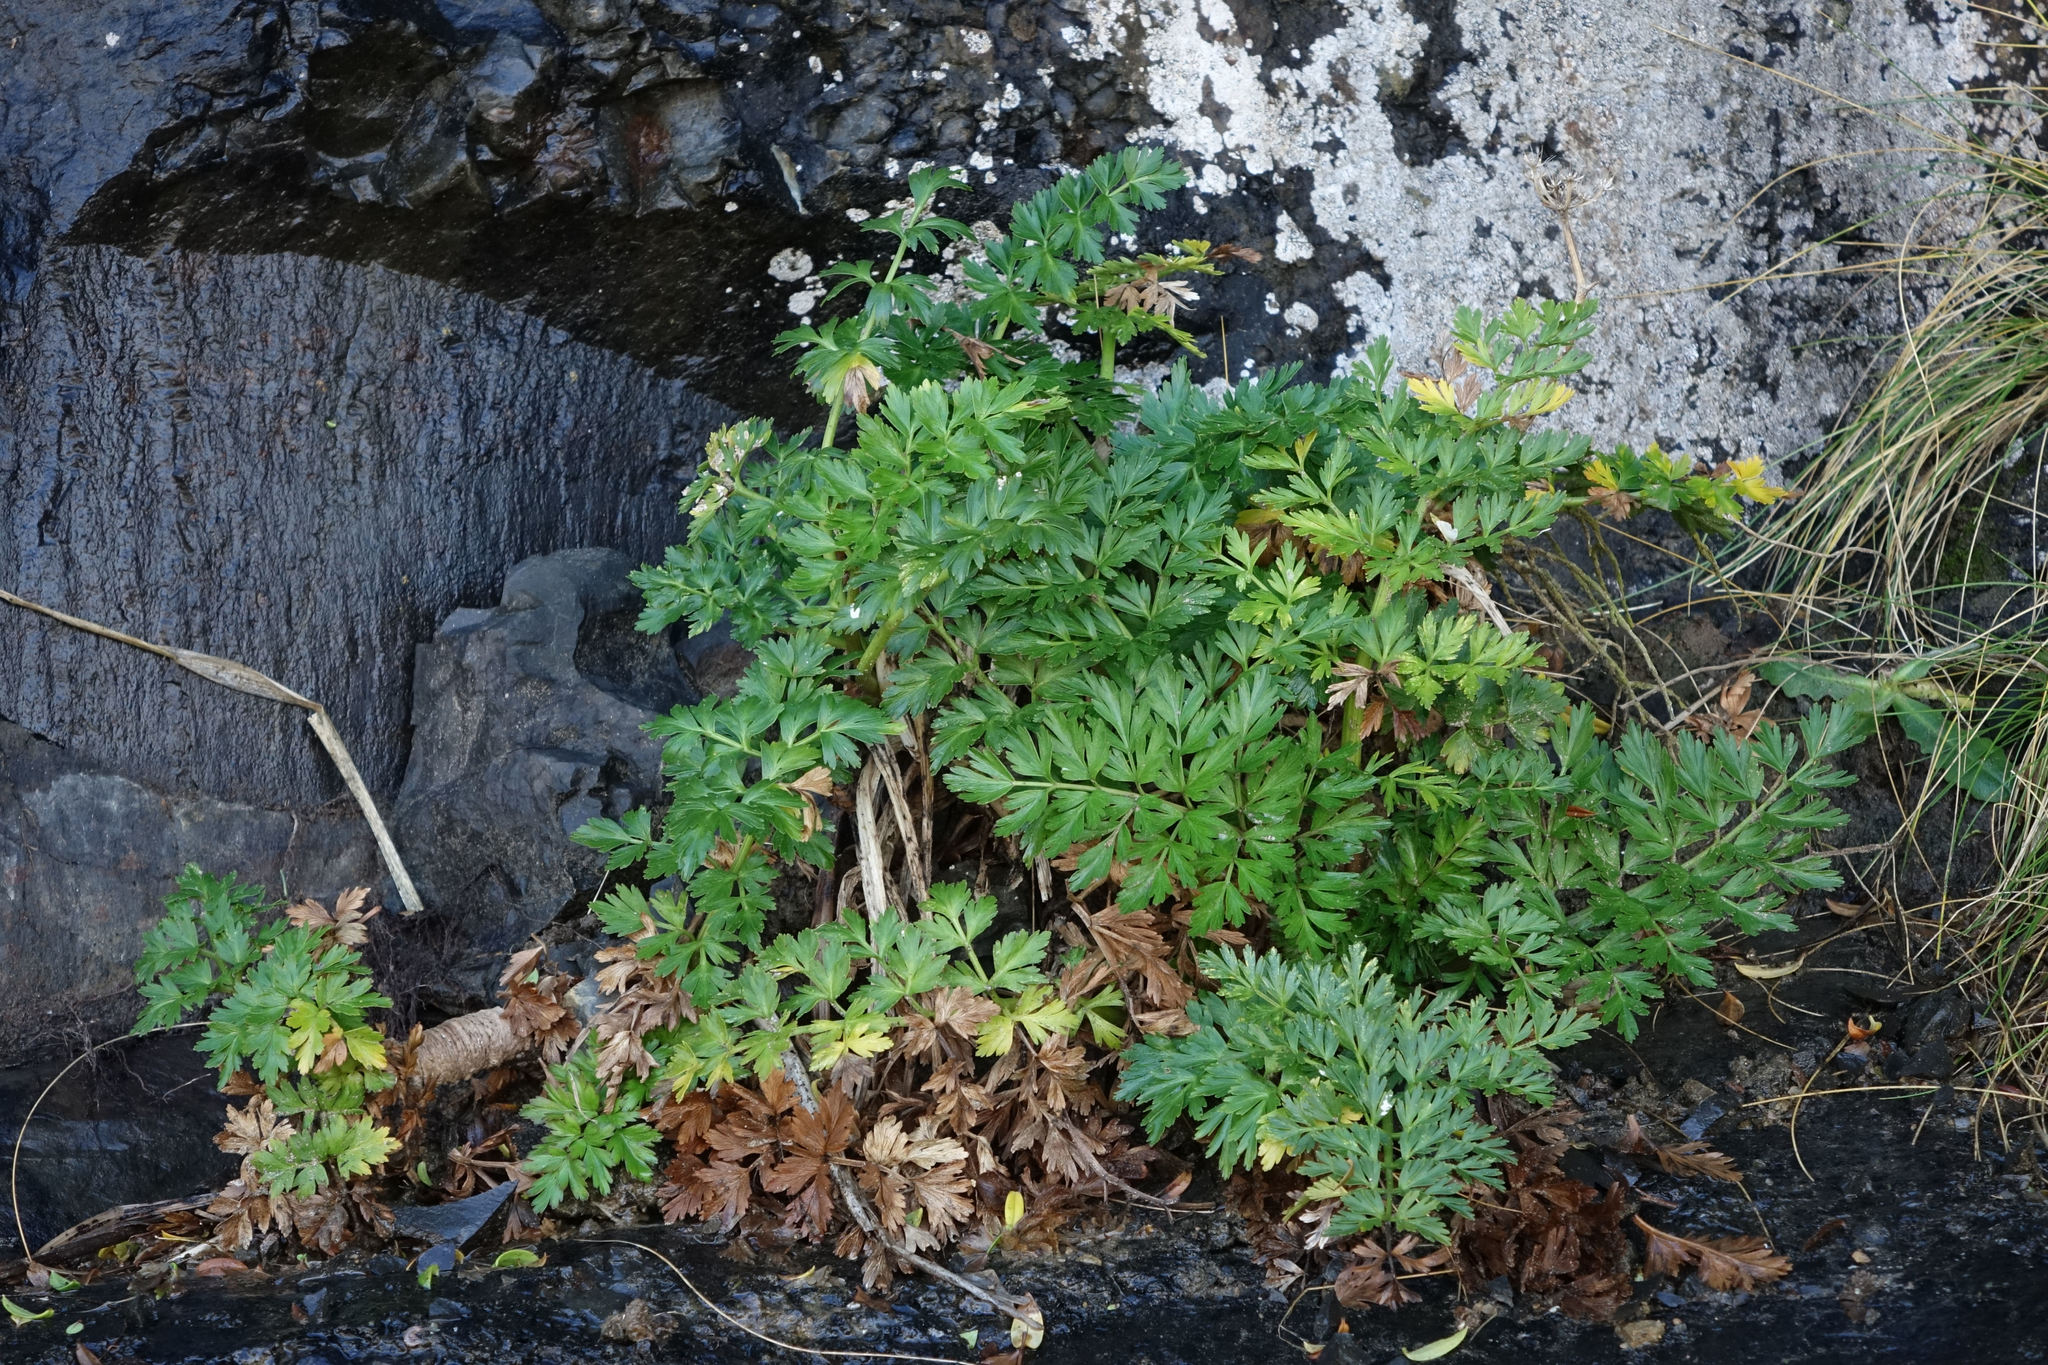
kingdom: Plantae
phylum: Tracheophyta
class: Magnoliopsida
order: Apiales
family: Apiaceae
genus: Anisotome
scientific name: Anisotome lyallii
